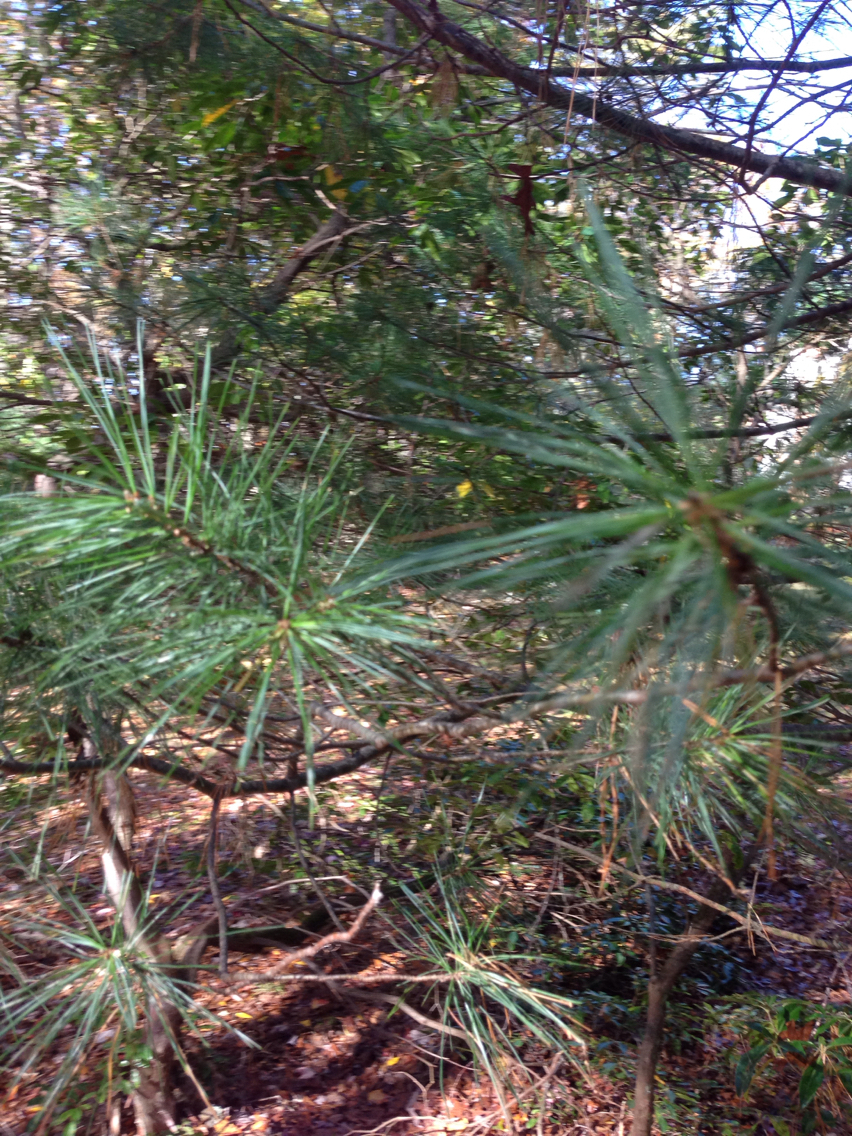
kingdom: Plantae
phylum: Tracheophyta
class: Pinopsida
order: Pinales
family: Pinaceae
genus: Pinus
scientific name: Pinus strobus
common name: Weymouth pine
